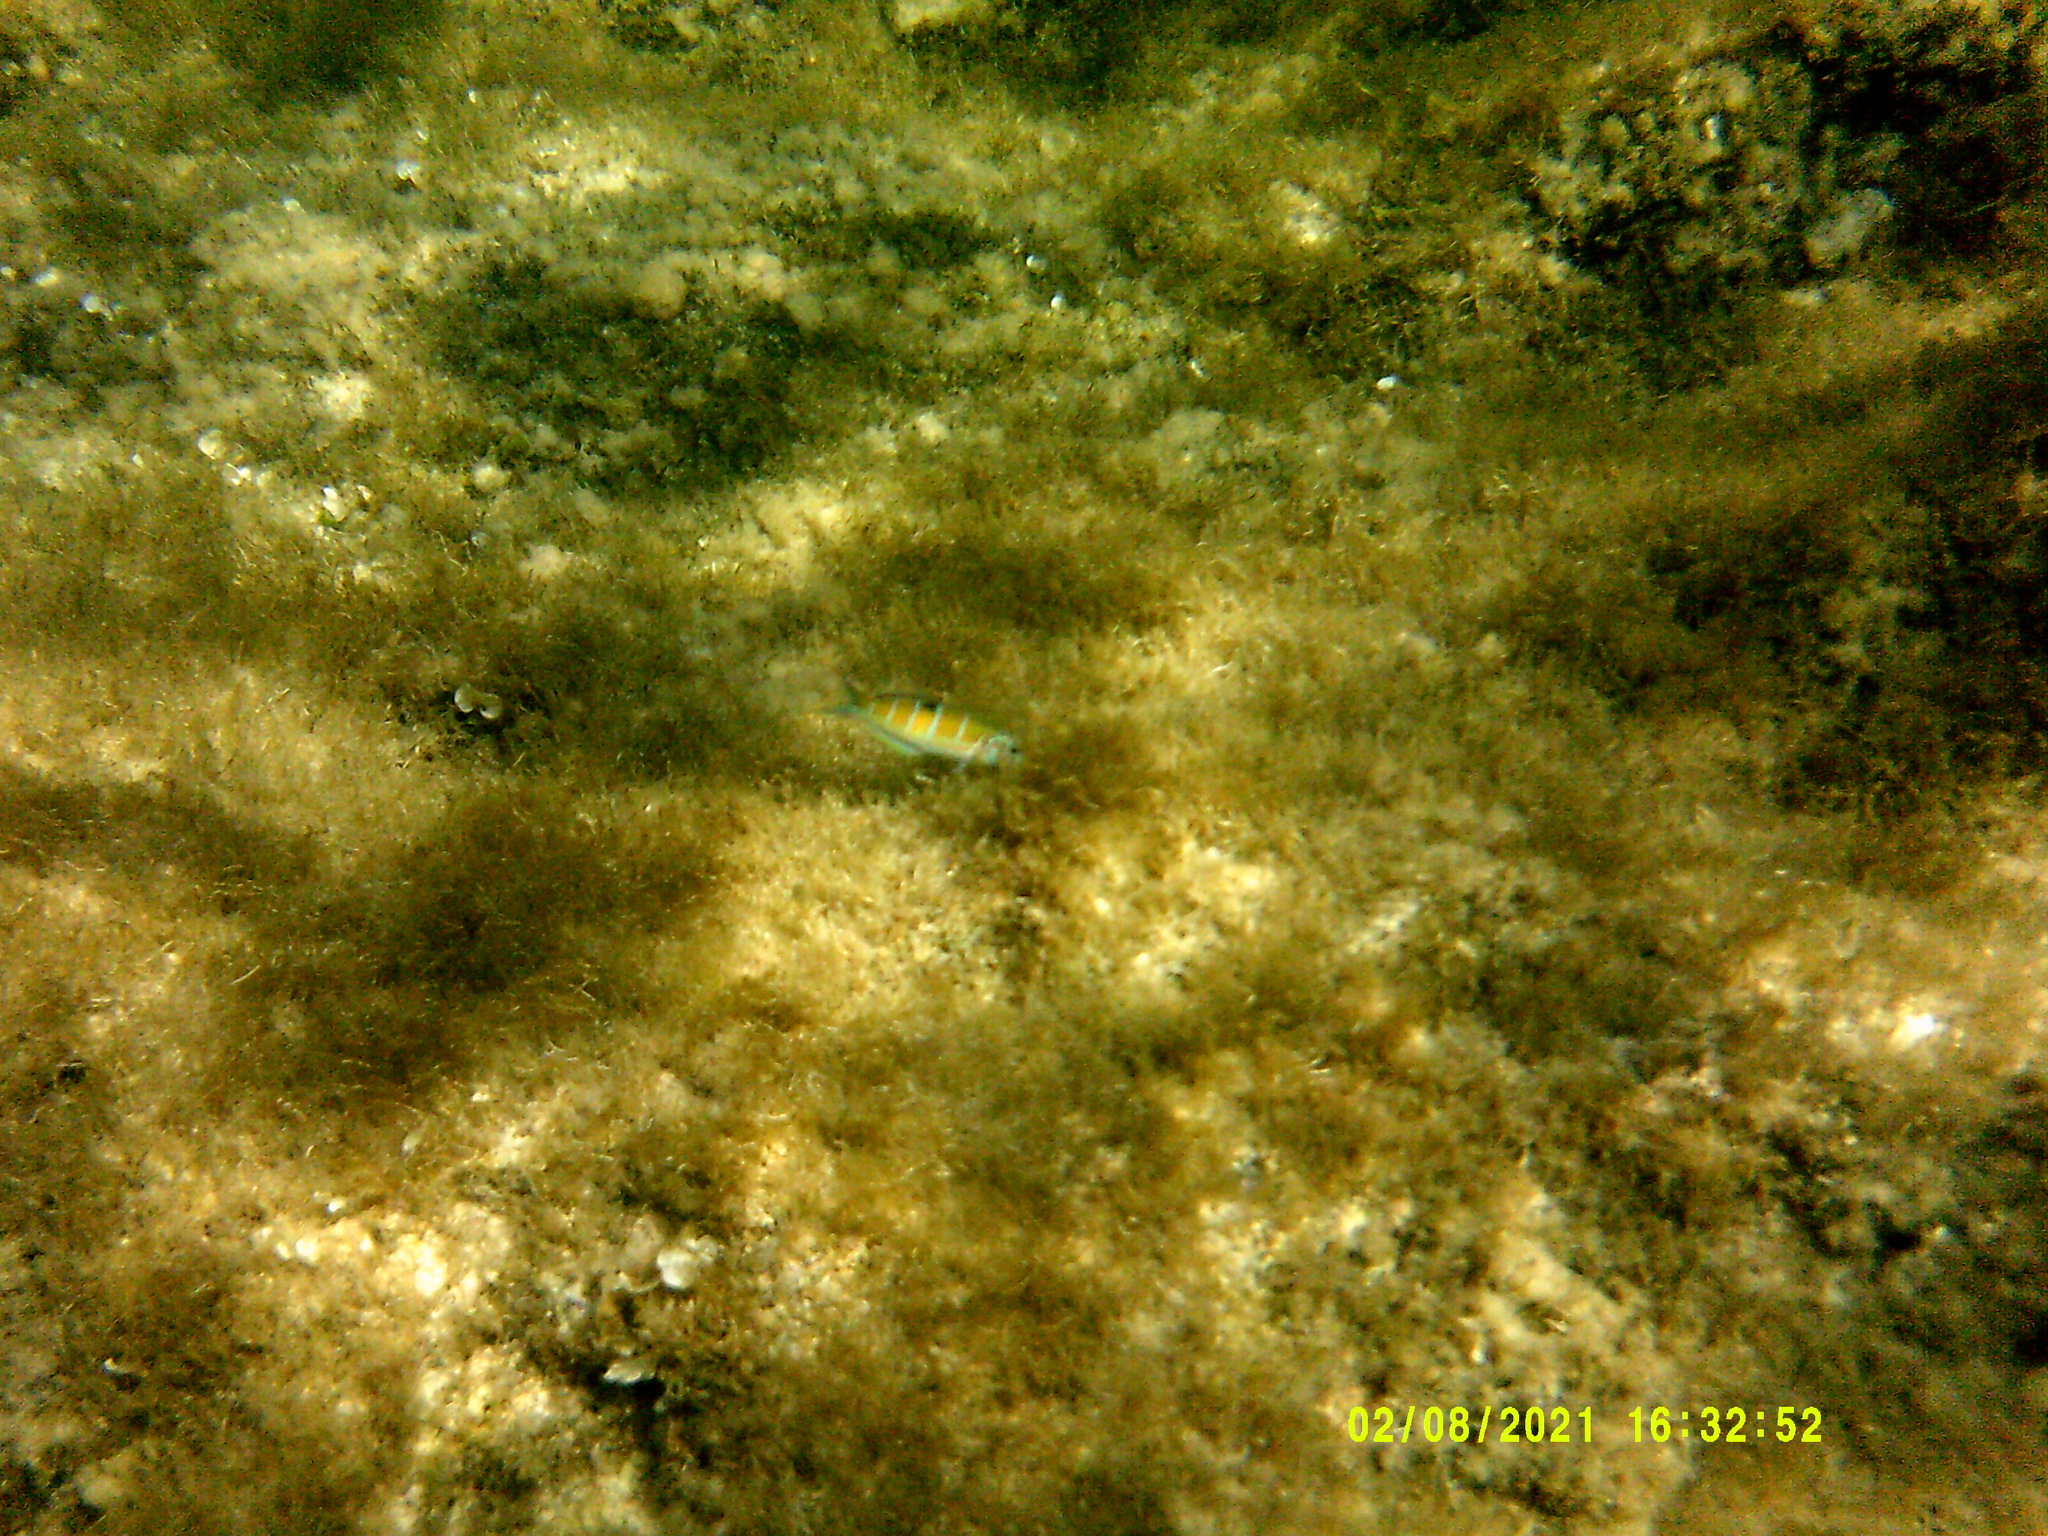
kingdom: Animalia
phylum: Chordata
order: Perciformes
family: Labridae
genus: Thalassoma
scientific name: Thalassoma pavo
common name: Ornate wrasse
